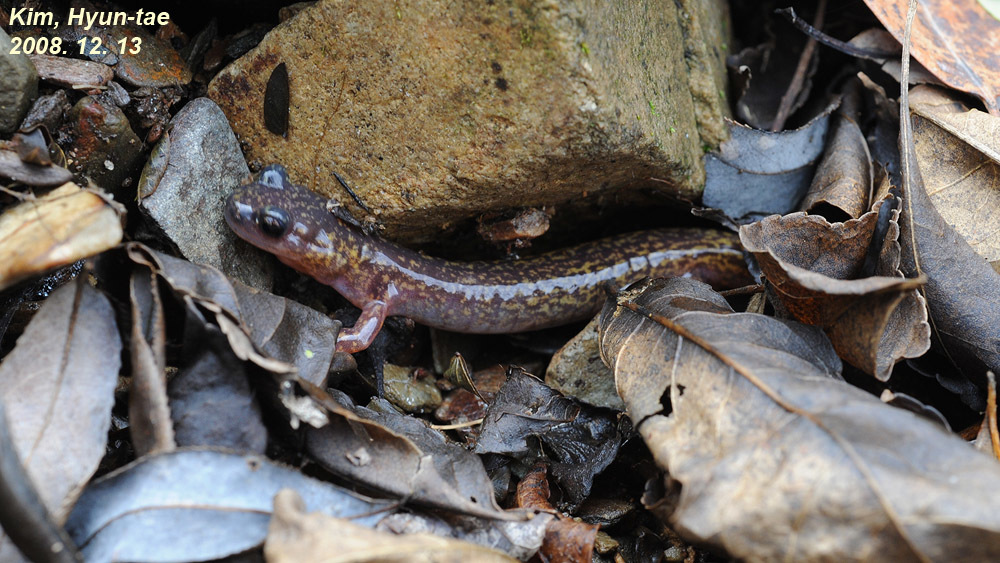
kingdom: Animalia
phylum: Chordata
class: Amphibia
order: Caudata
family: Hynobiidae
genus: Onychodactylus
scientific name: Onychodactylus koreanus
